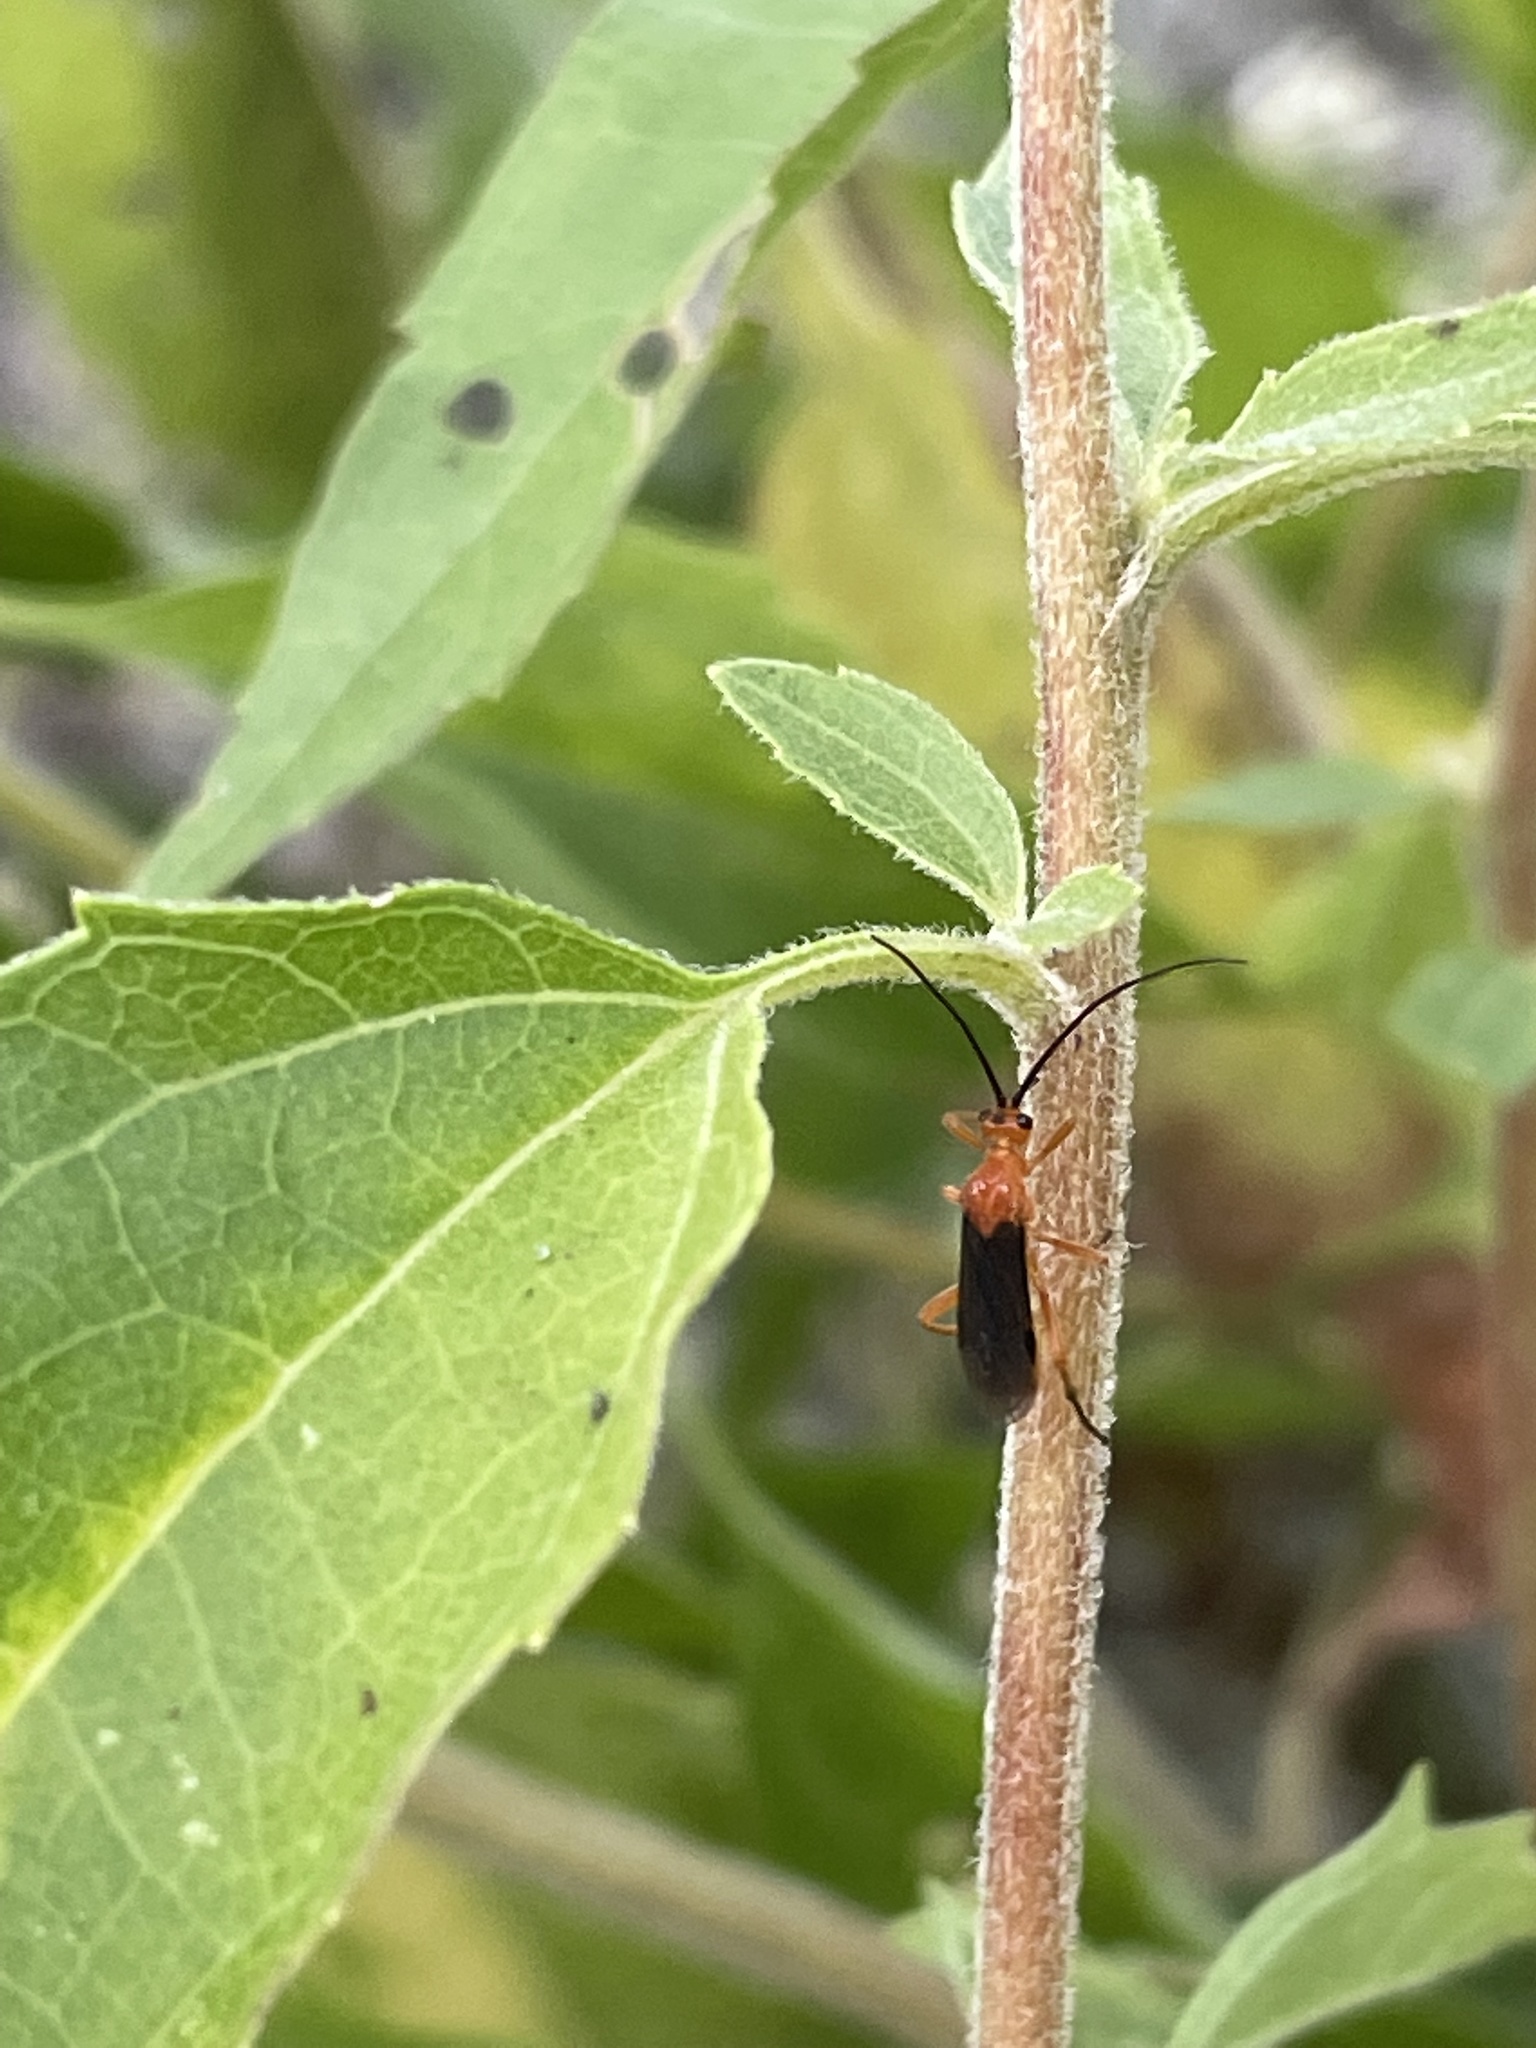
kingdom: Animalia
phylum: Arthropoda
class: Insecta
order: Hymenoptera
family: Braconidae
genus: Aleiodes
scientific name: Aleiodes politiceps
